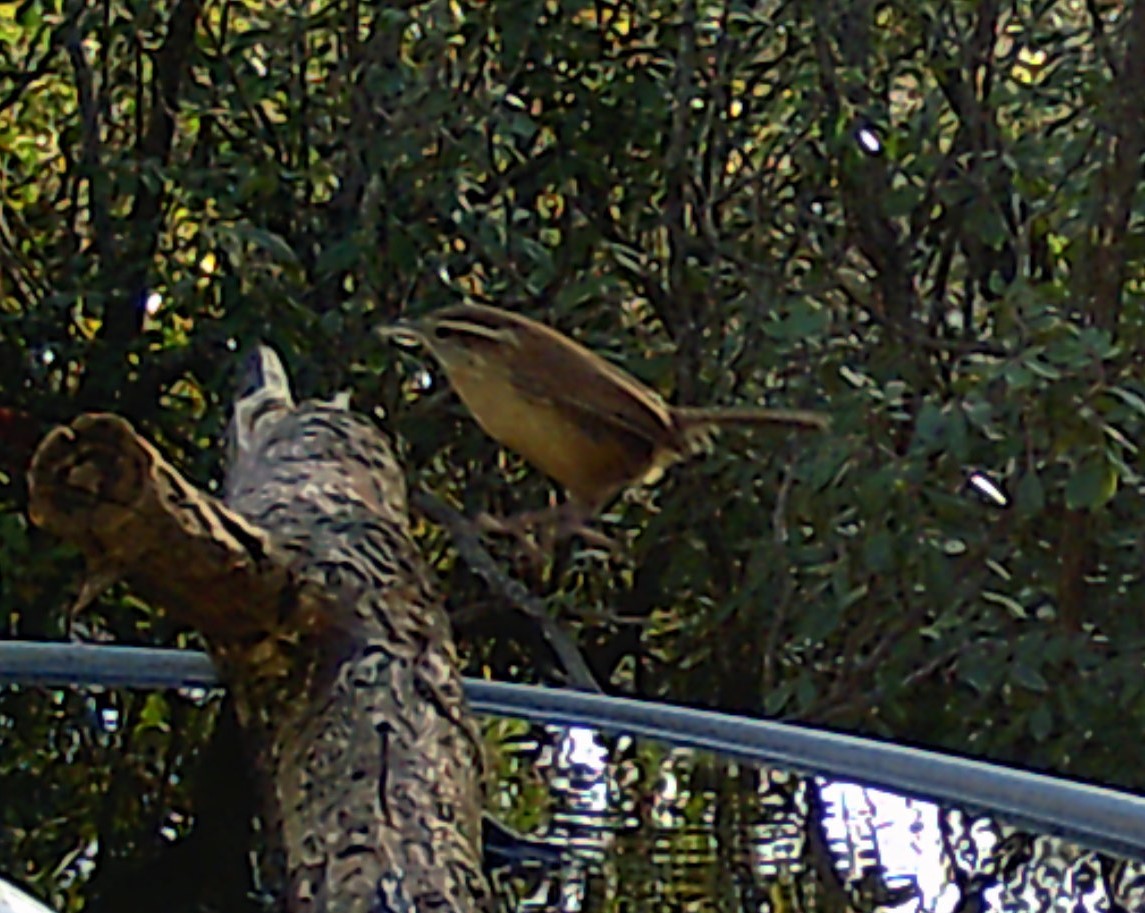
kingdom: Animalia
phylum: Chordata
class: Aves
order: Passeriformes
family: Troglodytidae
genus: Thryothorus
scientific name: Thryothorus ludovicianus
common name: Carolina wren
